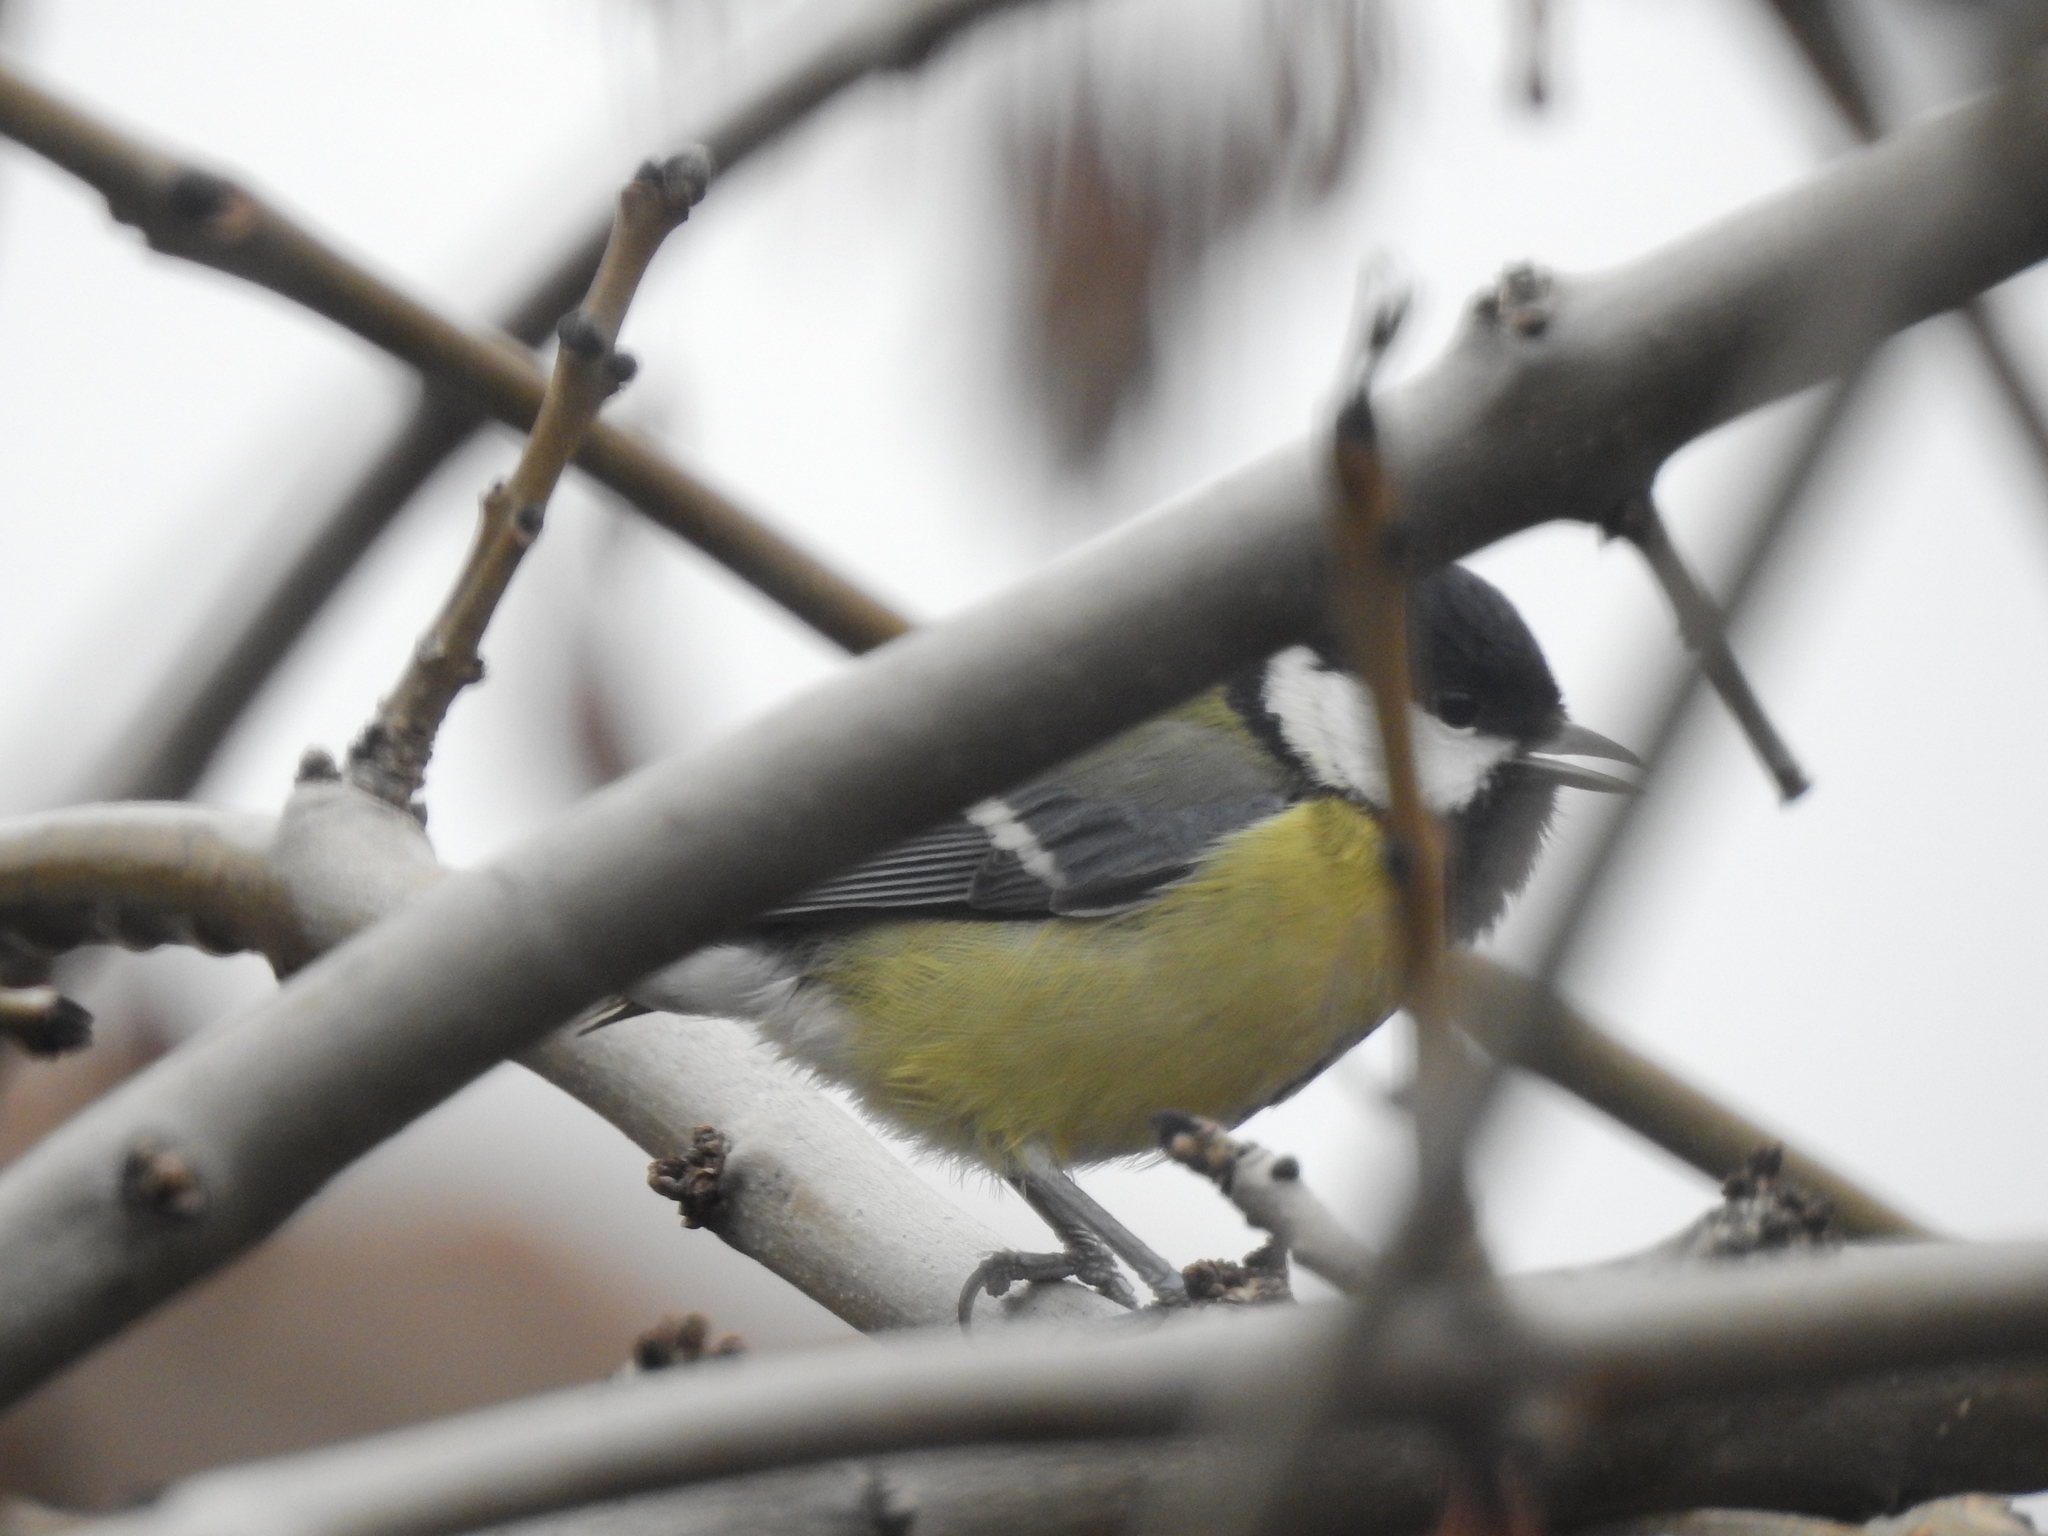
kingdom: Animalia
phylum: Chordata
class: Aves
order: Passeriformes
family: Paridae
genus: Parus
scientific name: Parus major
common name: Great tit
